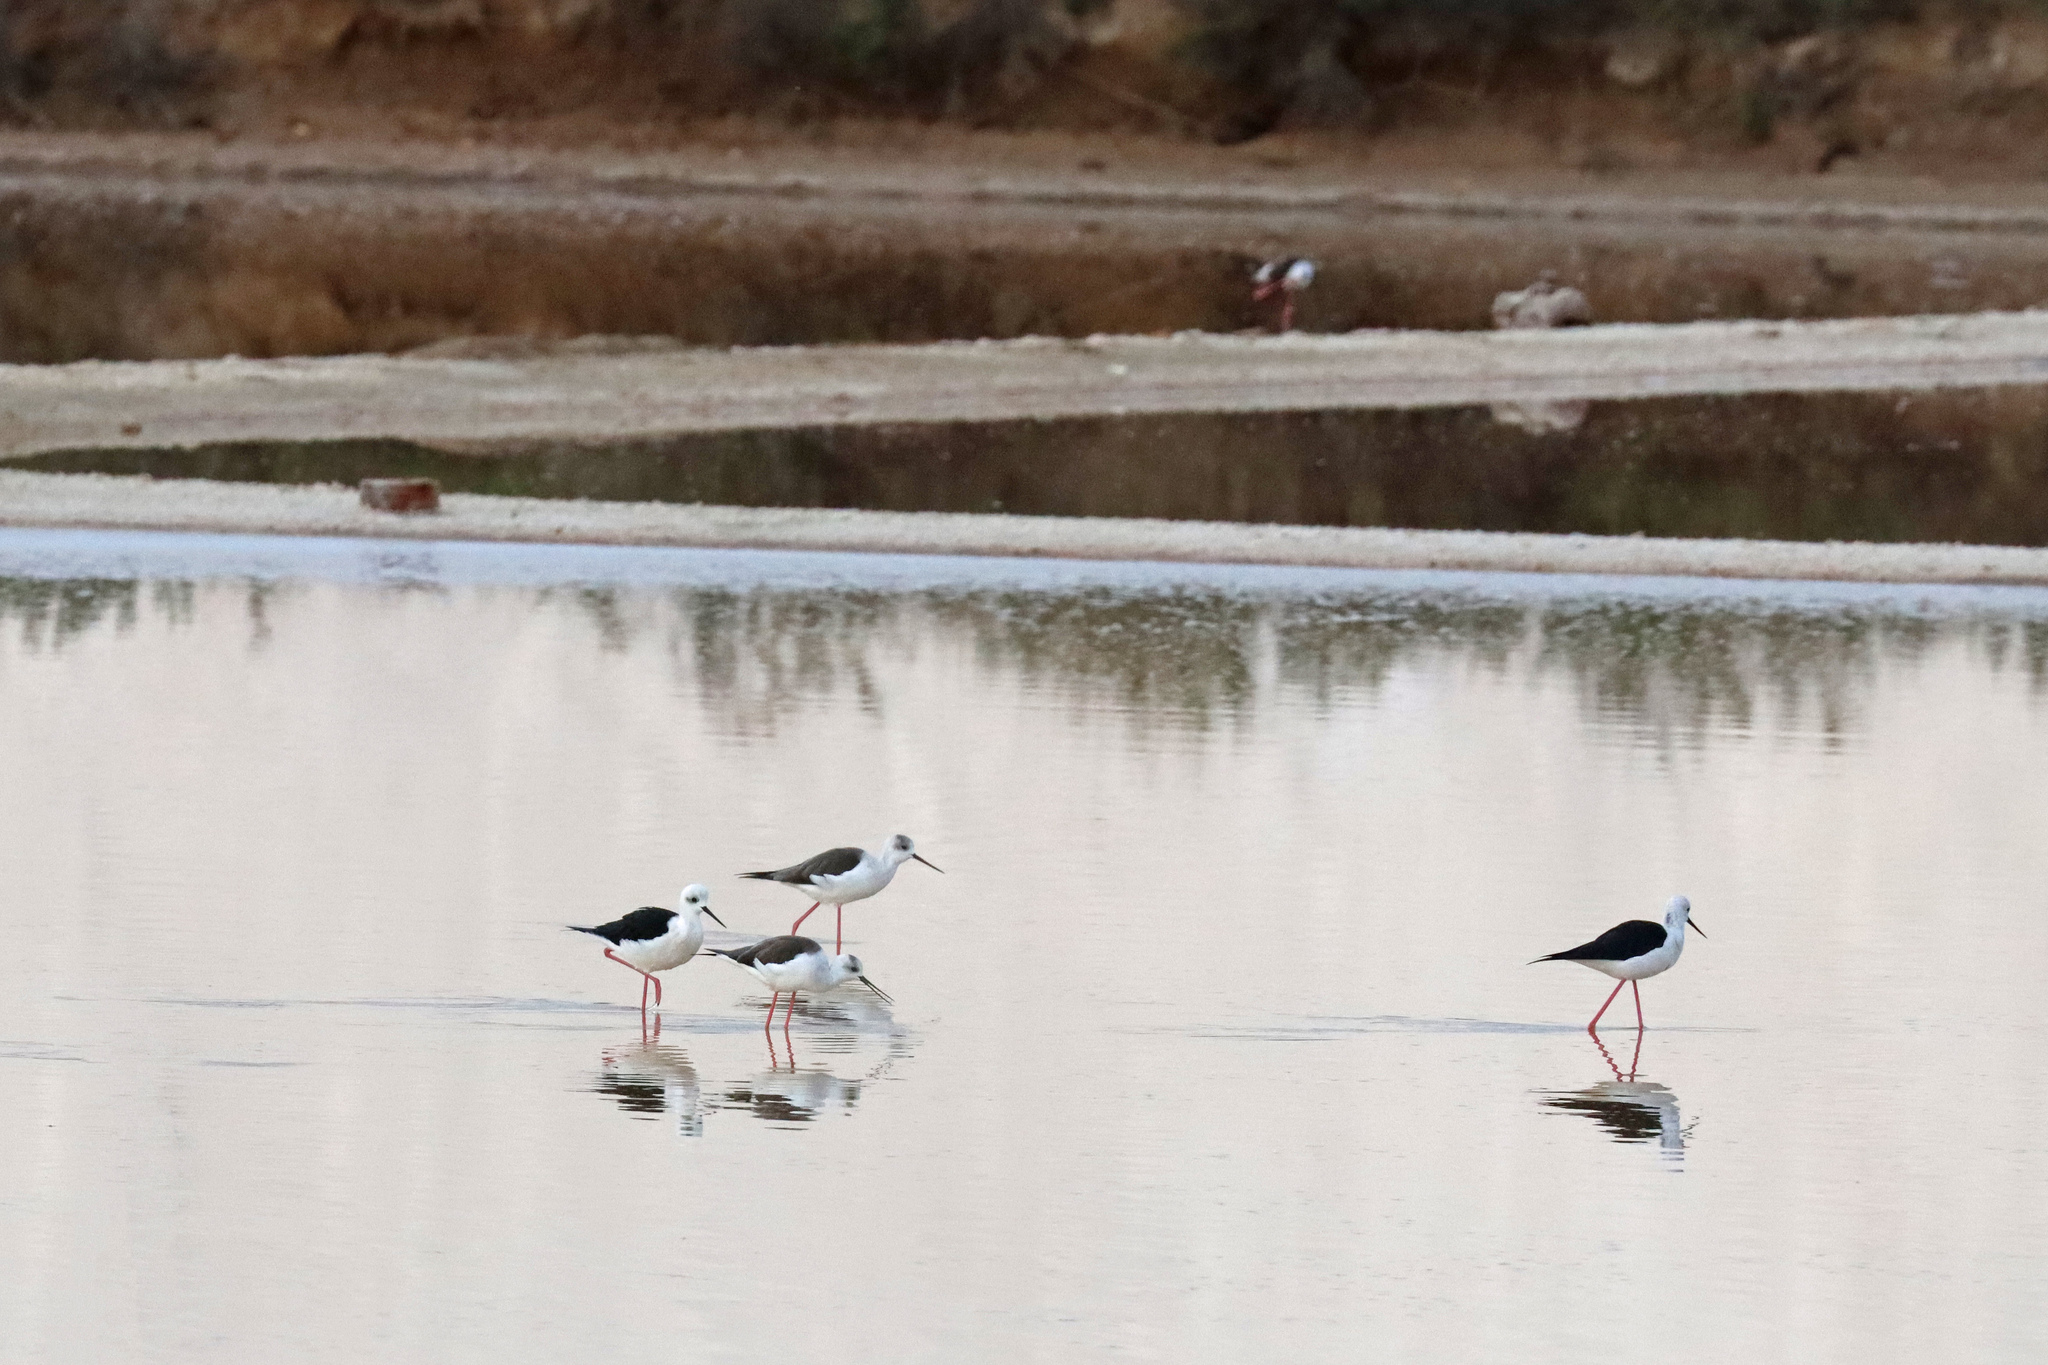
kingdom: Animalia
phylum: Chordata
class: Aves
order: Charadriiformes
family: Recurvirostridae
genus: Himantopus
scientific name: Himantopus himantopus
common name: Black-winged stilt
